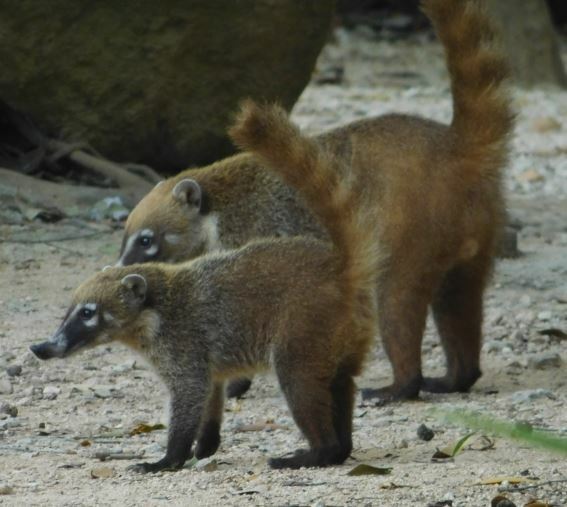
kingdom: Animalia
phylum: Chordata
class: Mammalia
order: Carnivora
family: Procyonidae
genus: Nasua
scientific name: Nasua narica
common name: White-nosed coati
